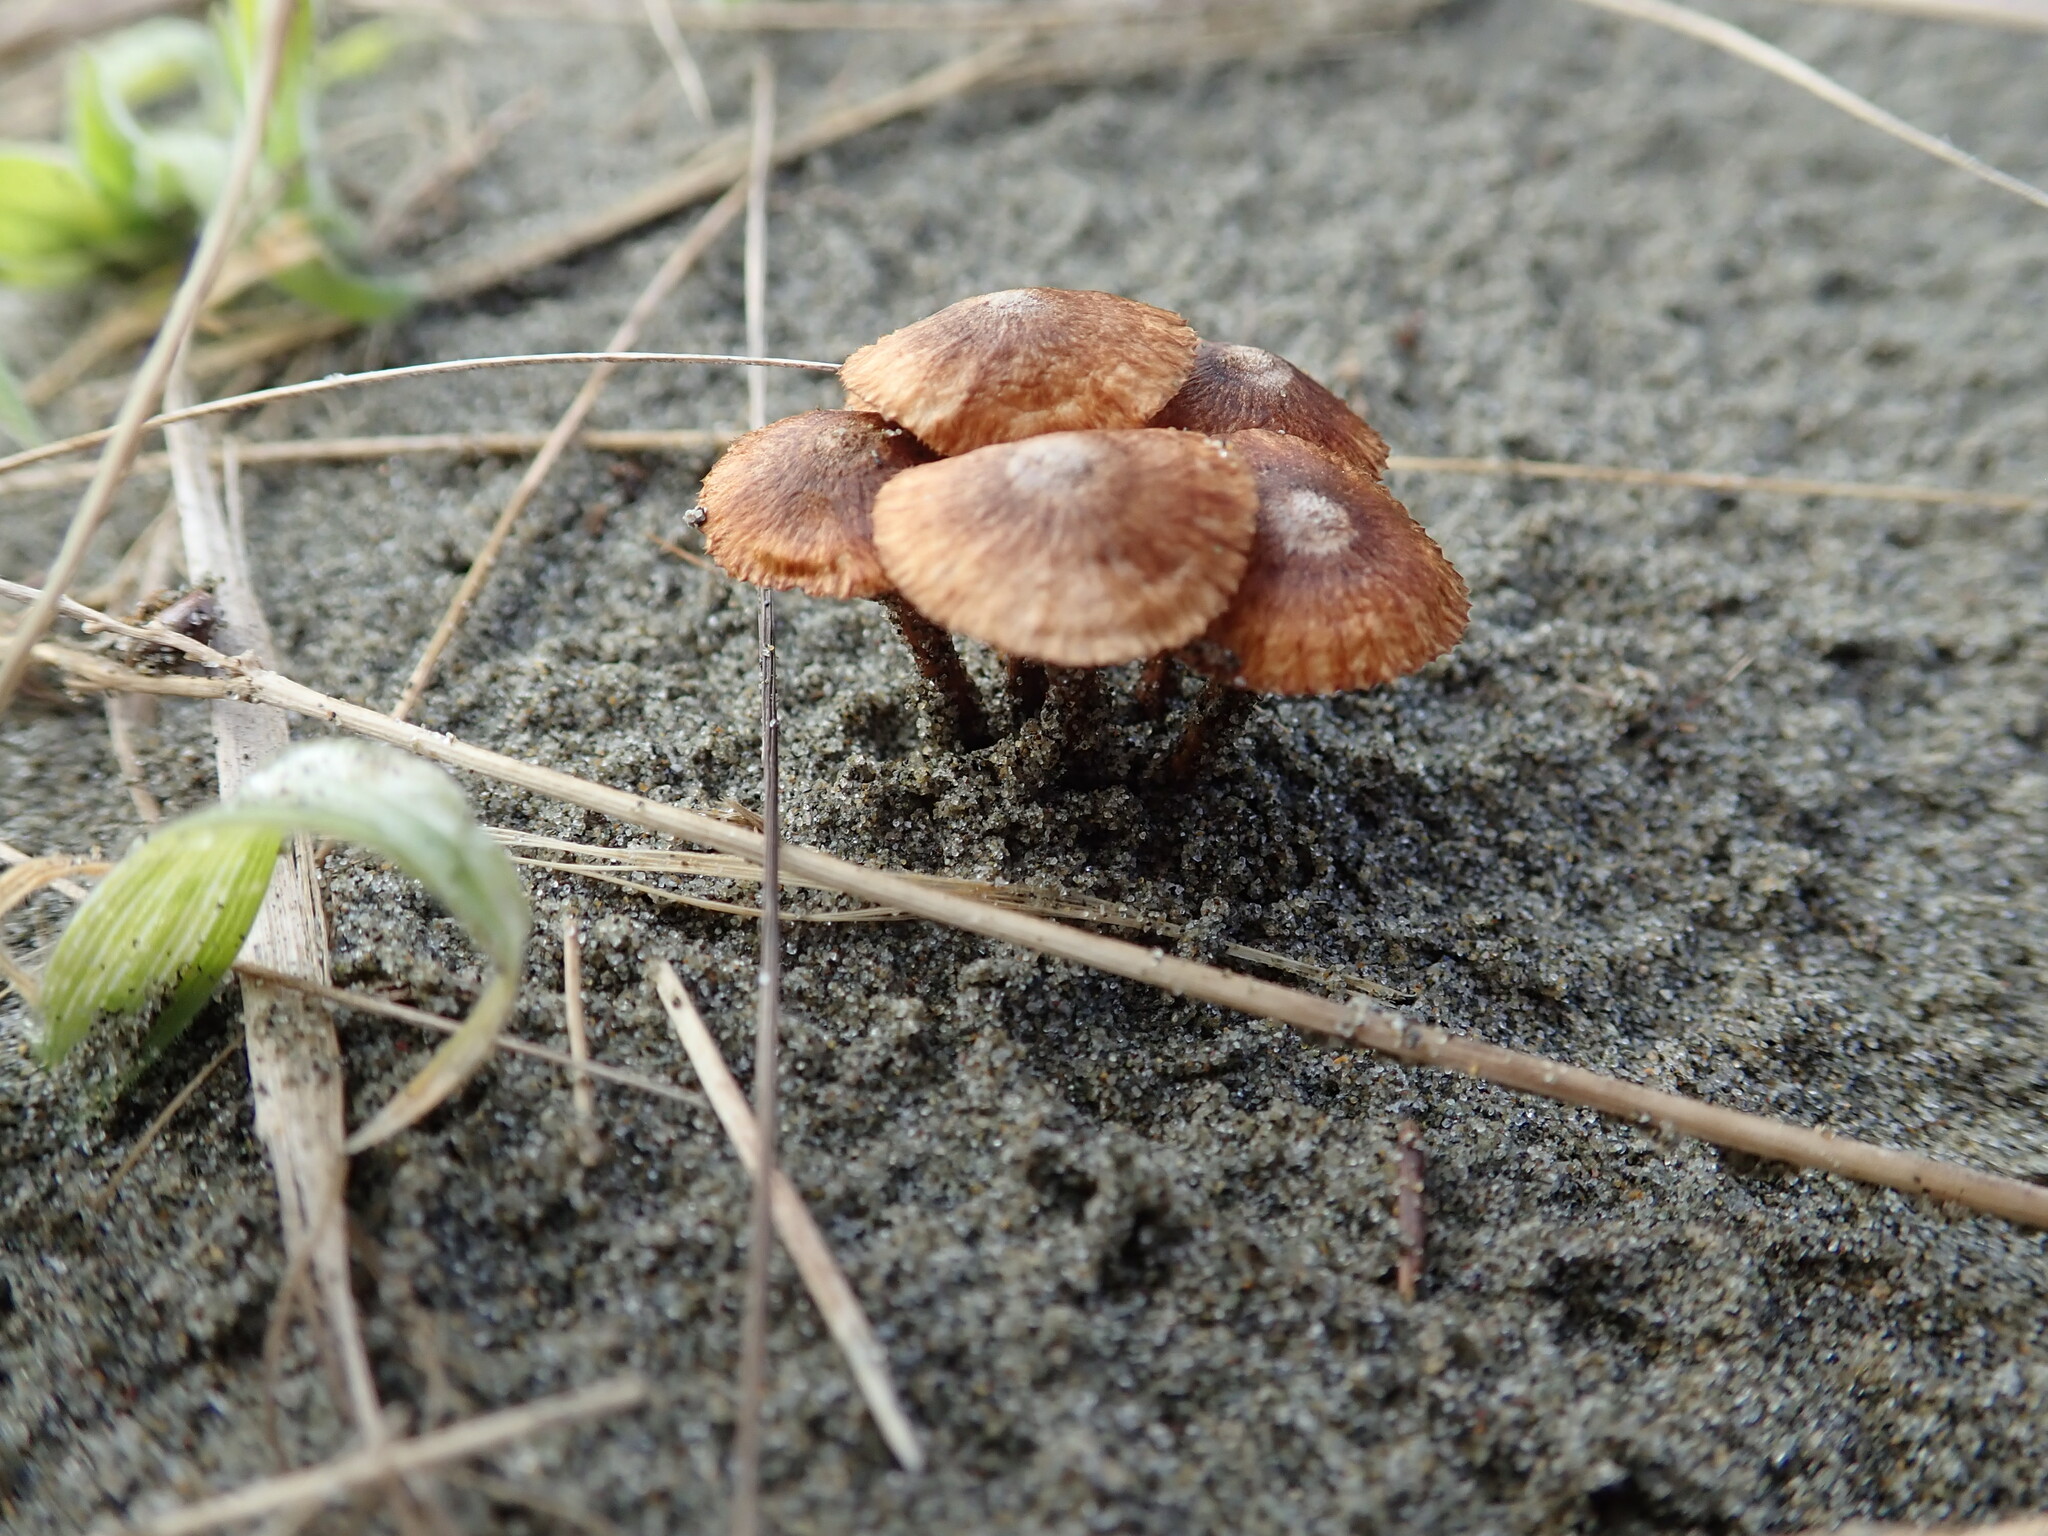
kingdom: Fungi
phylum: Basidiomycota
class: Agaricomycetes
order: Agaricales
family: Marasmiaceae
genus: Crinipellis
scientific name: Crinipellis scabella
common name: Hairy parachute
